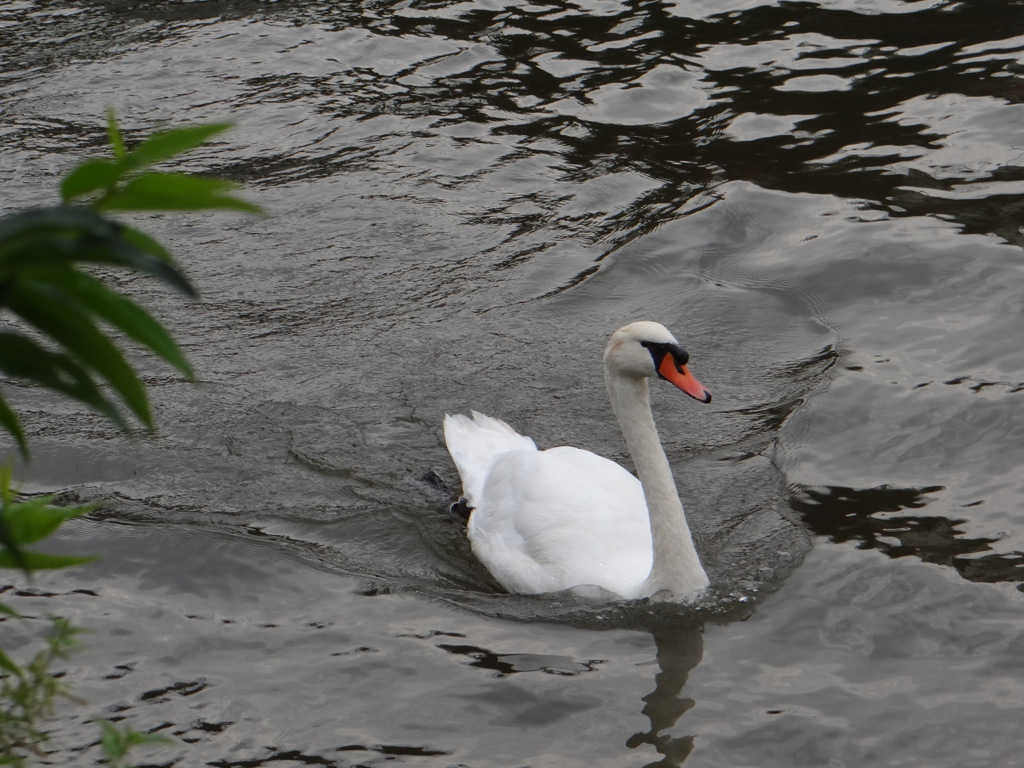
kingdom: Animalia
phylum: Chordata
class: Aves
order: Anseriformes
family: Anatidae
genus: Cygnus
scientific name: Cygnus olor
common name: Mute swan
